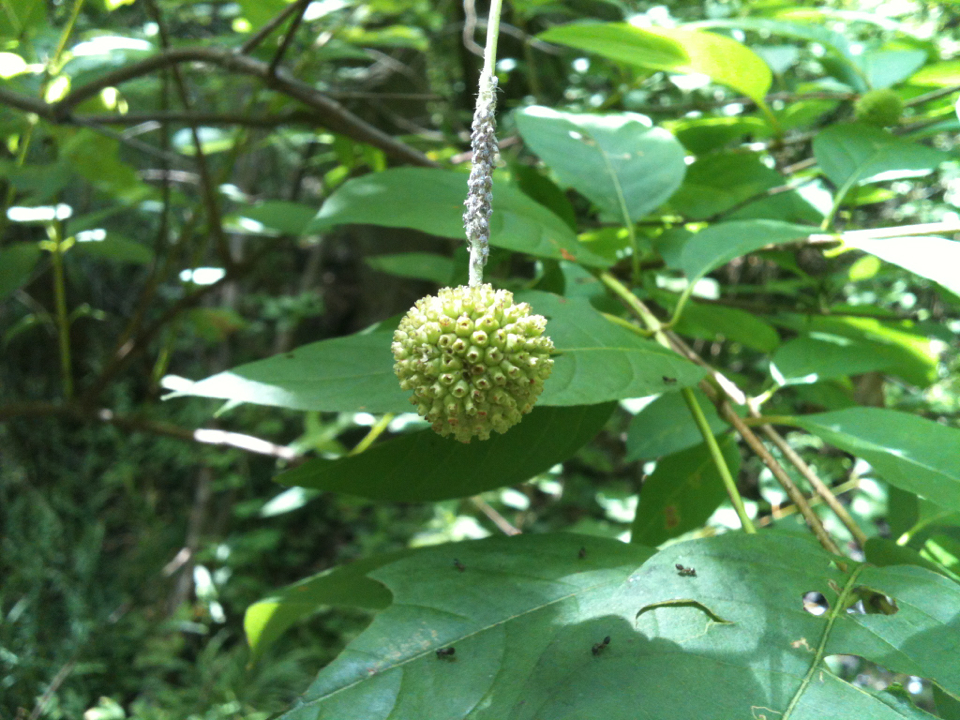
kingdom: Plantae
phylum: Tracheophyta
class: Magnoliopsida
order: Gentianales
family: Rubiaceae
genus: Cephalanthus
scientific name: Cephalanthus occidentalis
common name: Button-willow
